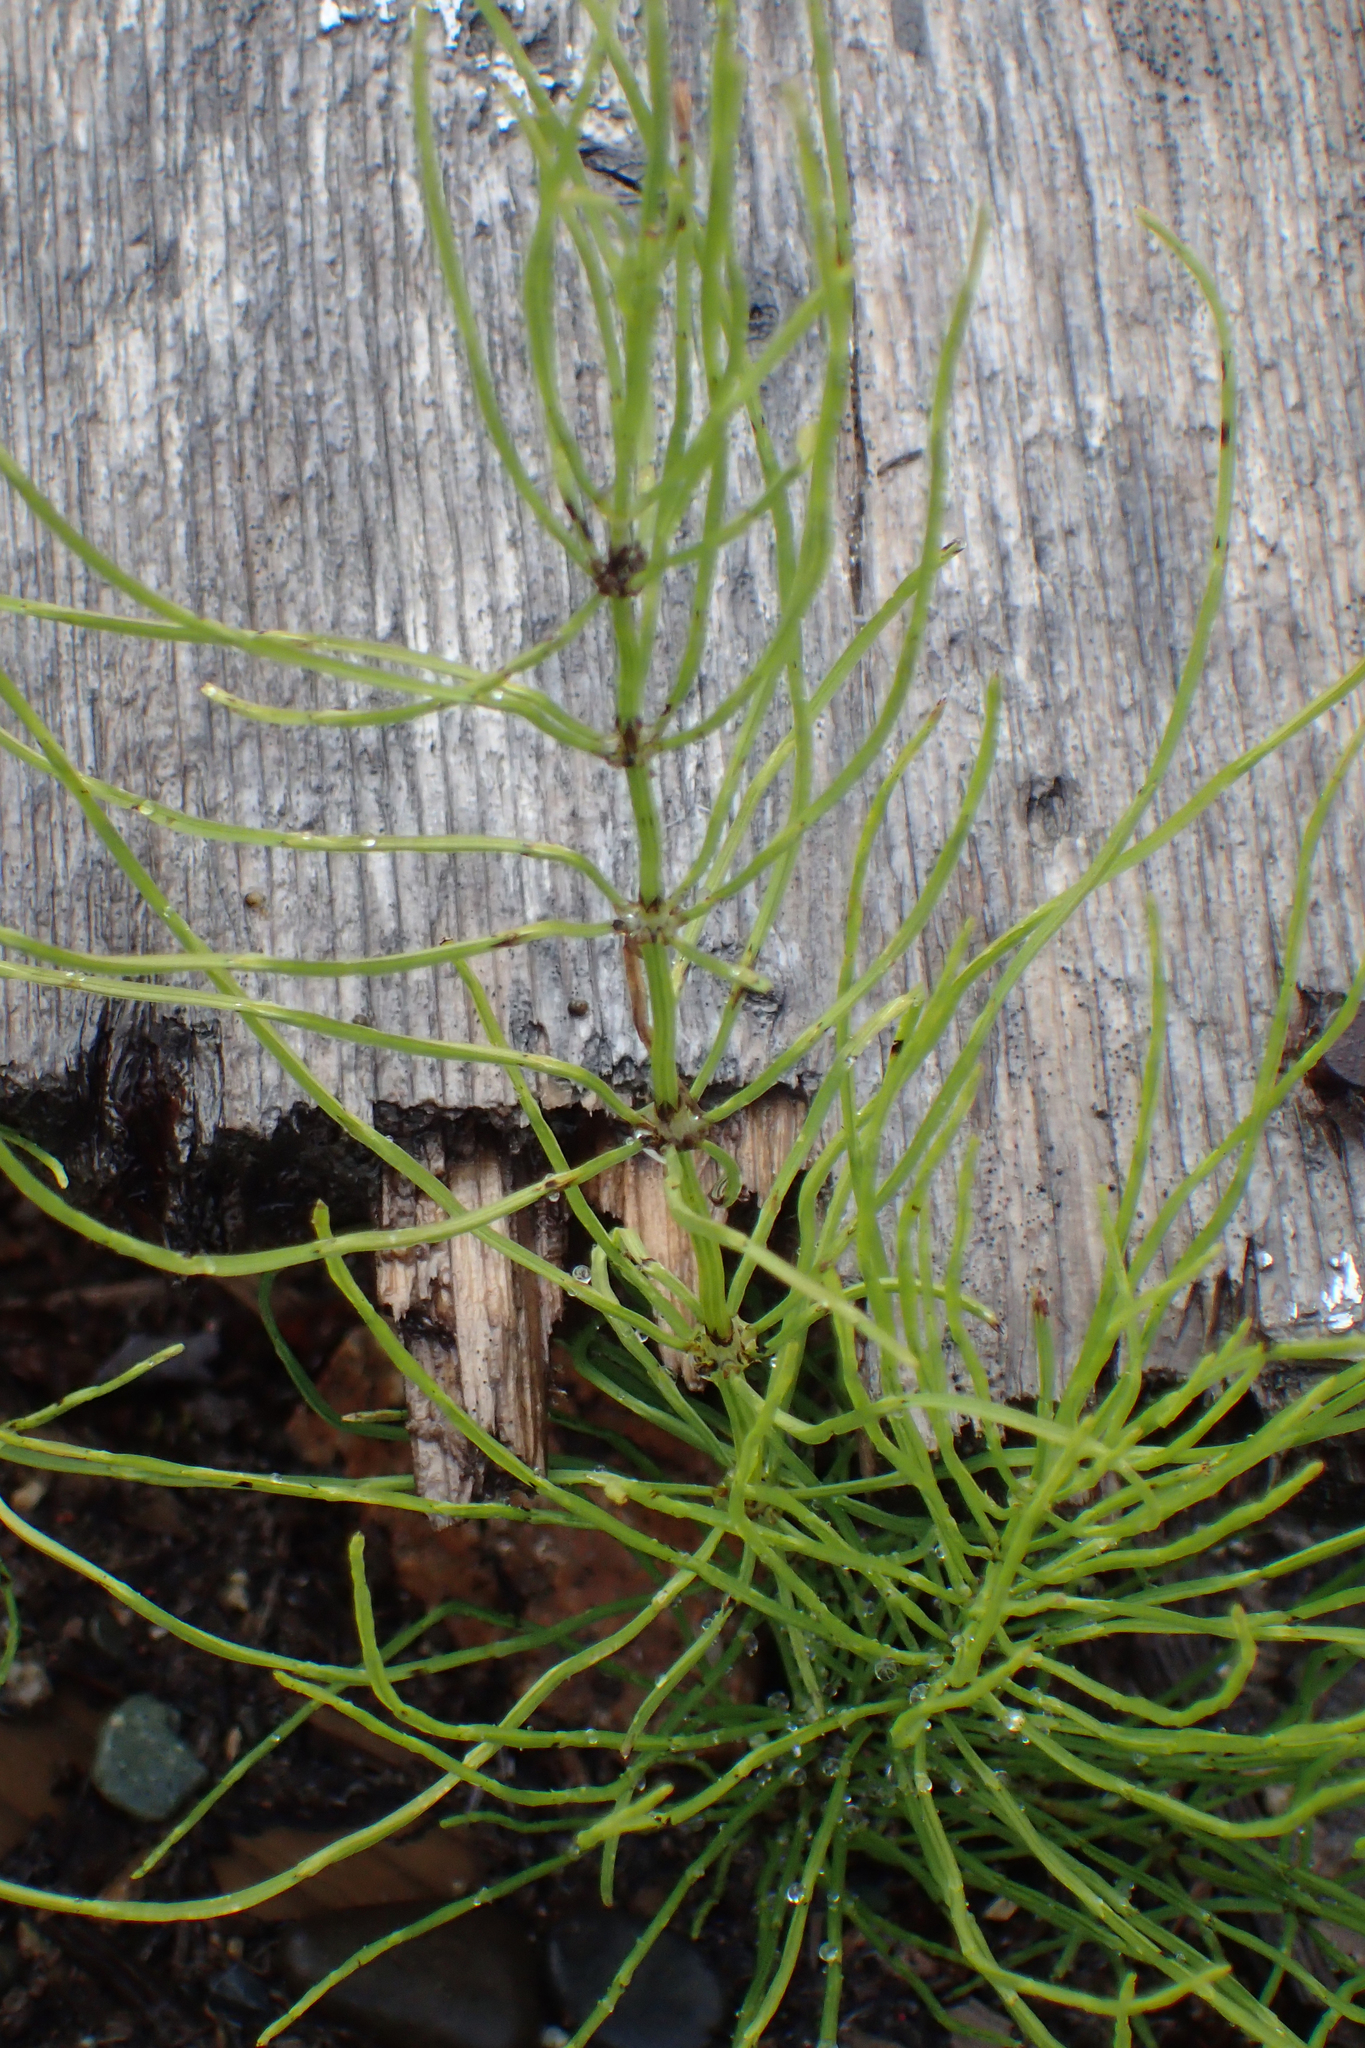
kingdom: Plantae
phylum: Tracheophyta
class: Polypodiopsida
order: Equisetales
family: Equisetaceae
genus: Equisetum
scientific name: Equisetum arvense
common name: Field horsetail
